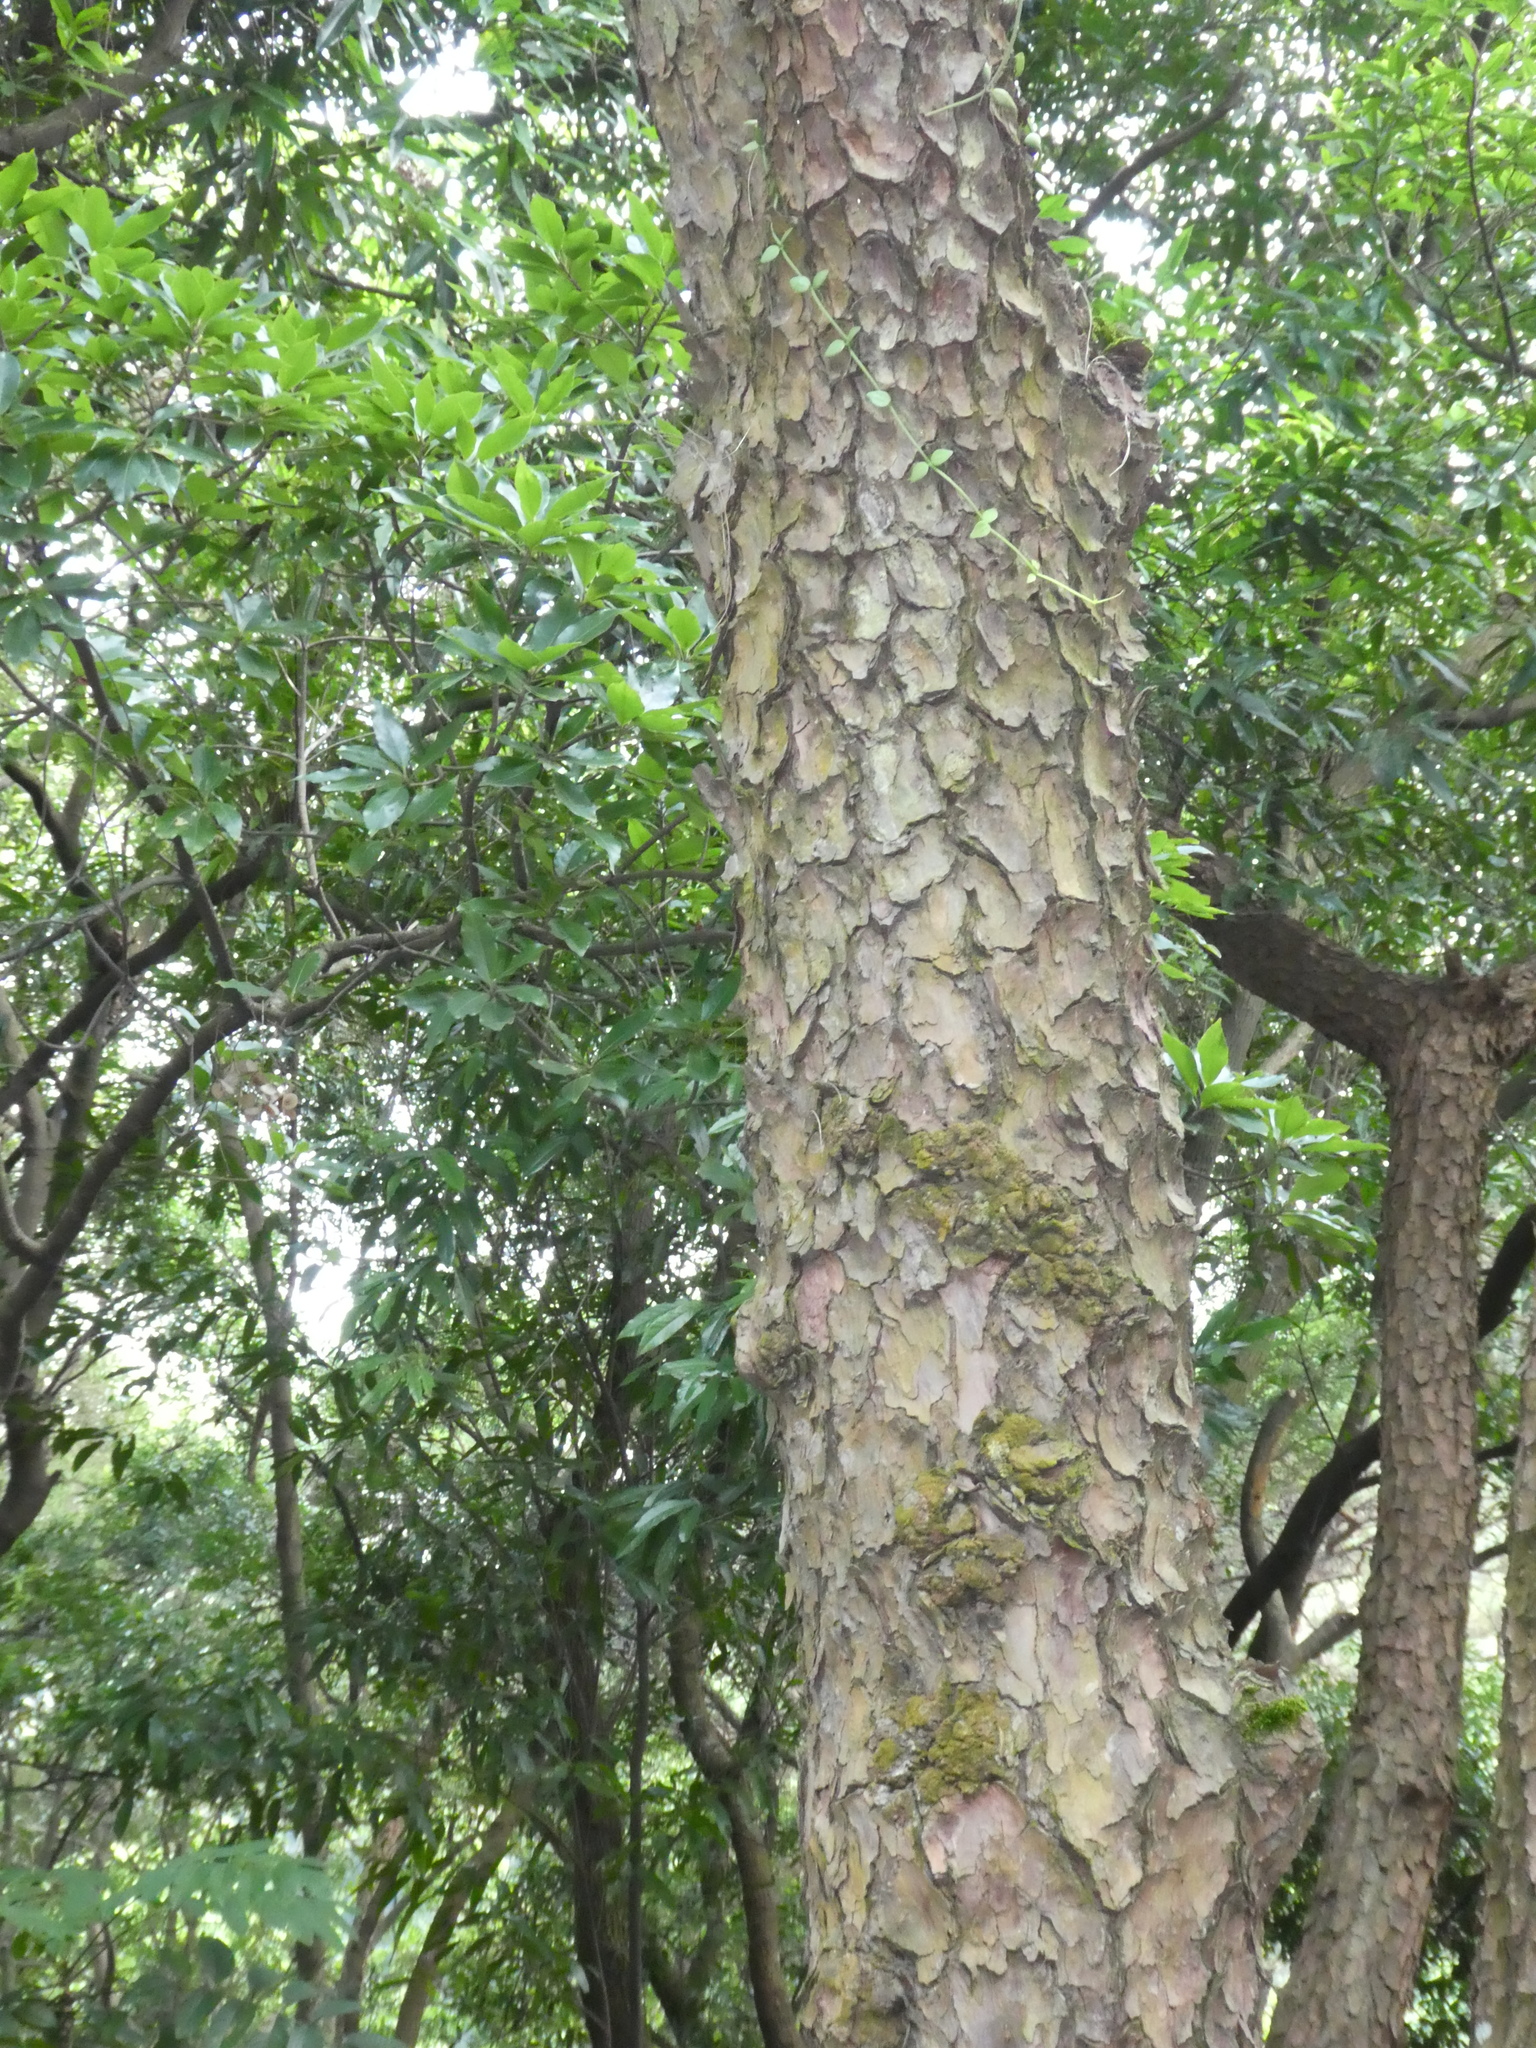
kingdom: Plantae
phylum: Tracheophyta
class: Pinopsida
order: Pinales
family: Pinaceae
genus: Pinus
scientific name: Pinus massoniana
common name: Chinese red pine
